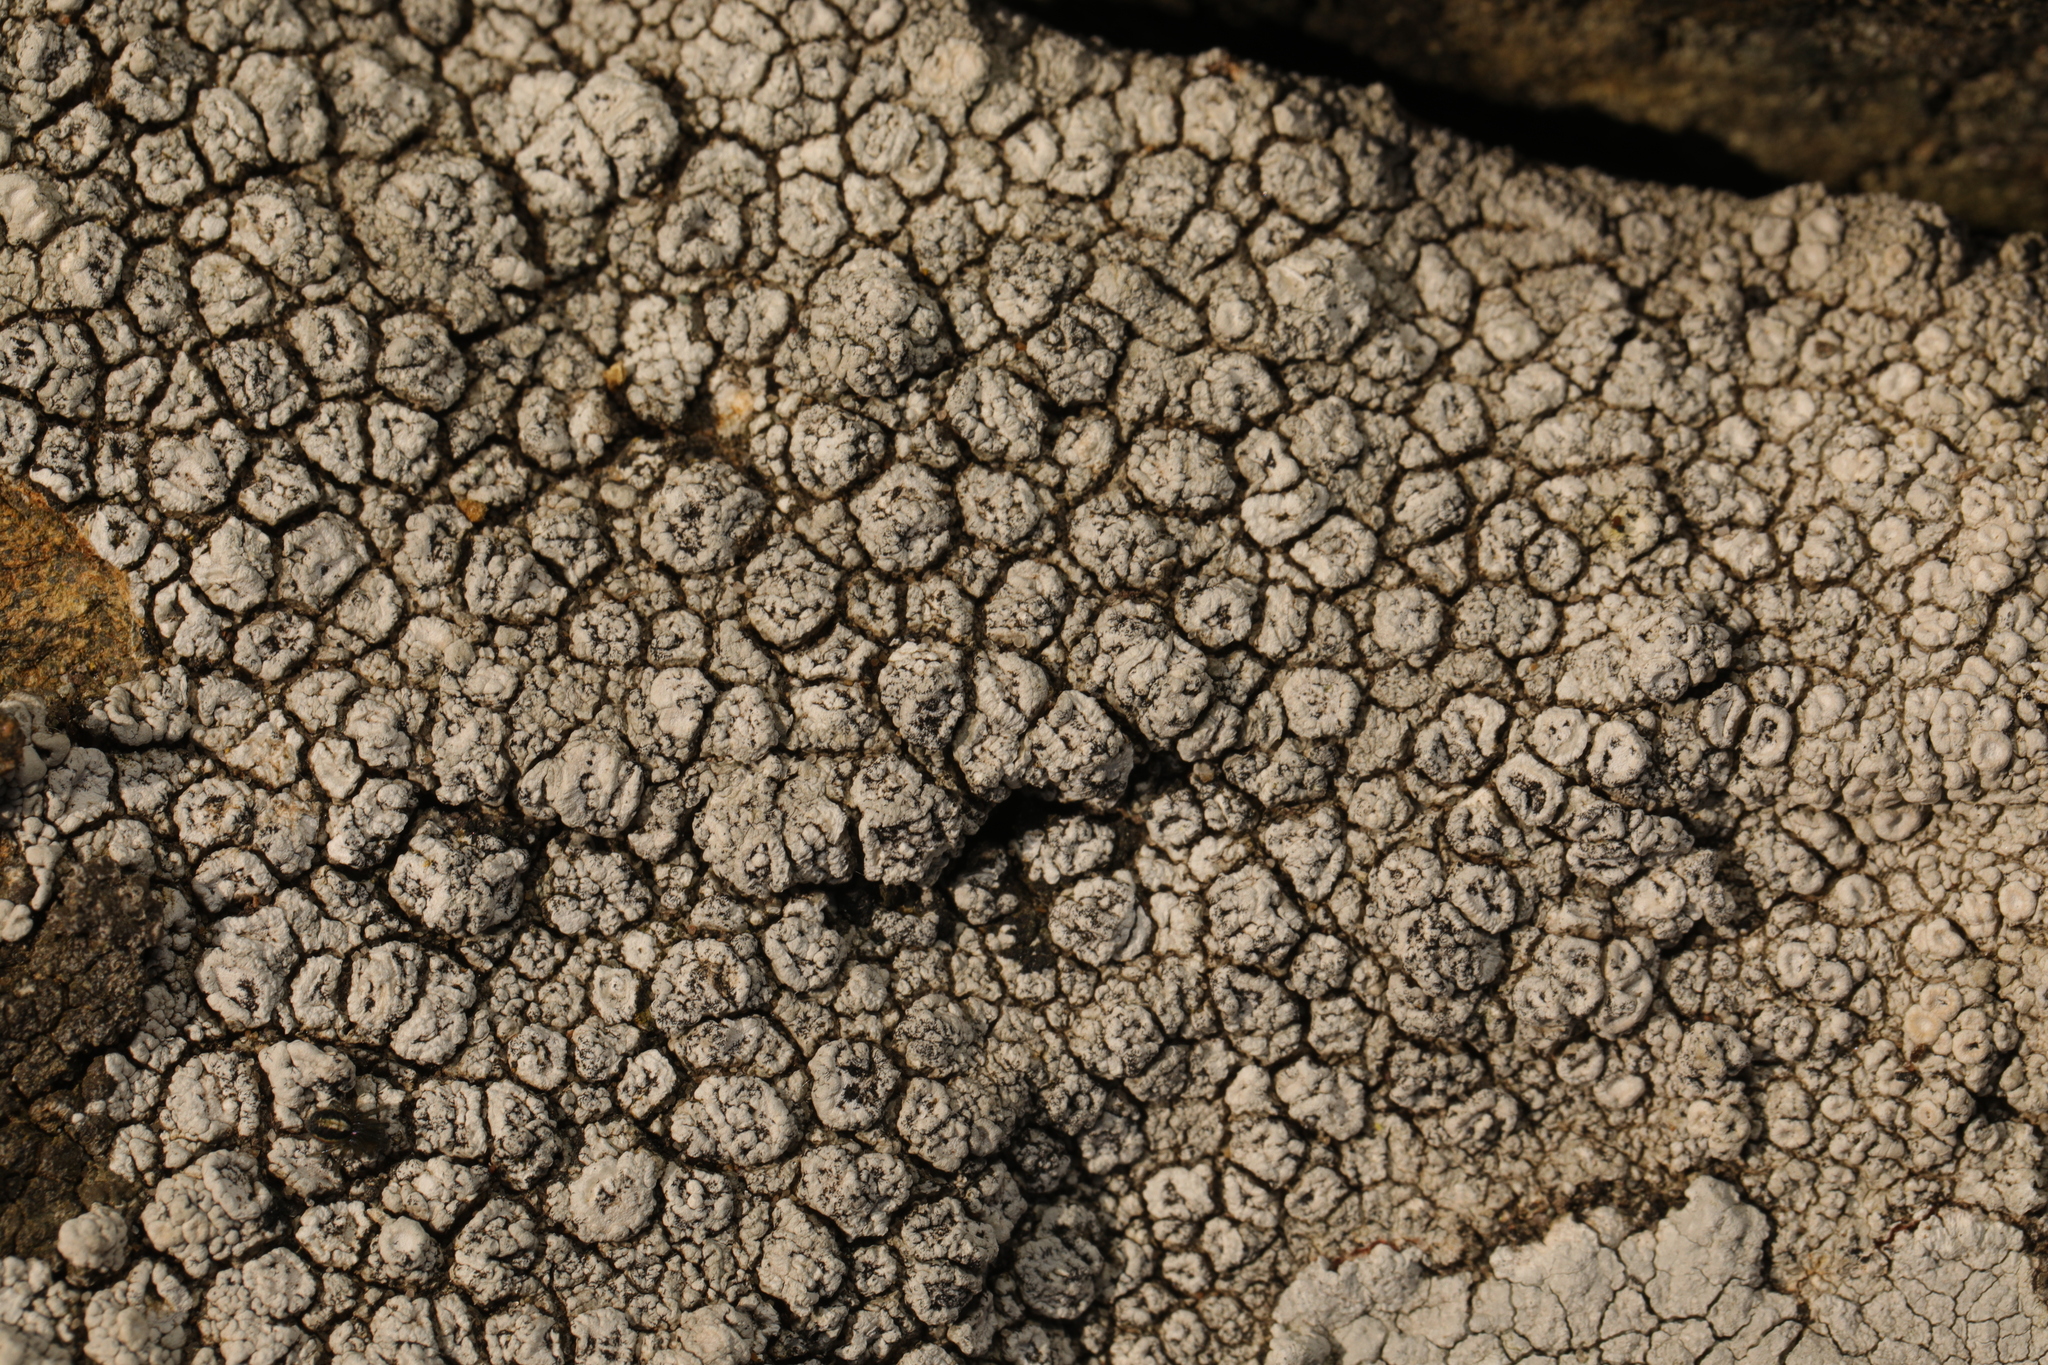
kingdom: Fungi
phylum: Ascomycota
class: Lecanoromycetes
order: Pertusariales
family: Ochrolechiaceae
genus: Ochrolechia
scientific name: Ochrolechia parella
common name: Crab's eye lichen
